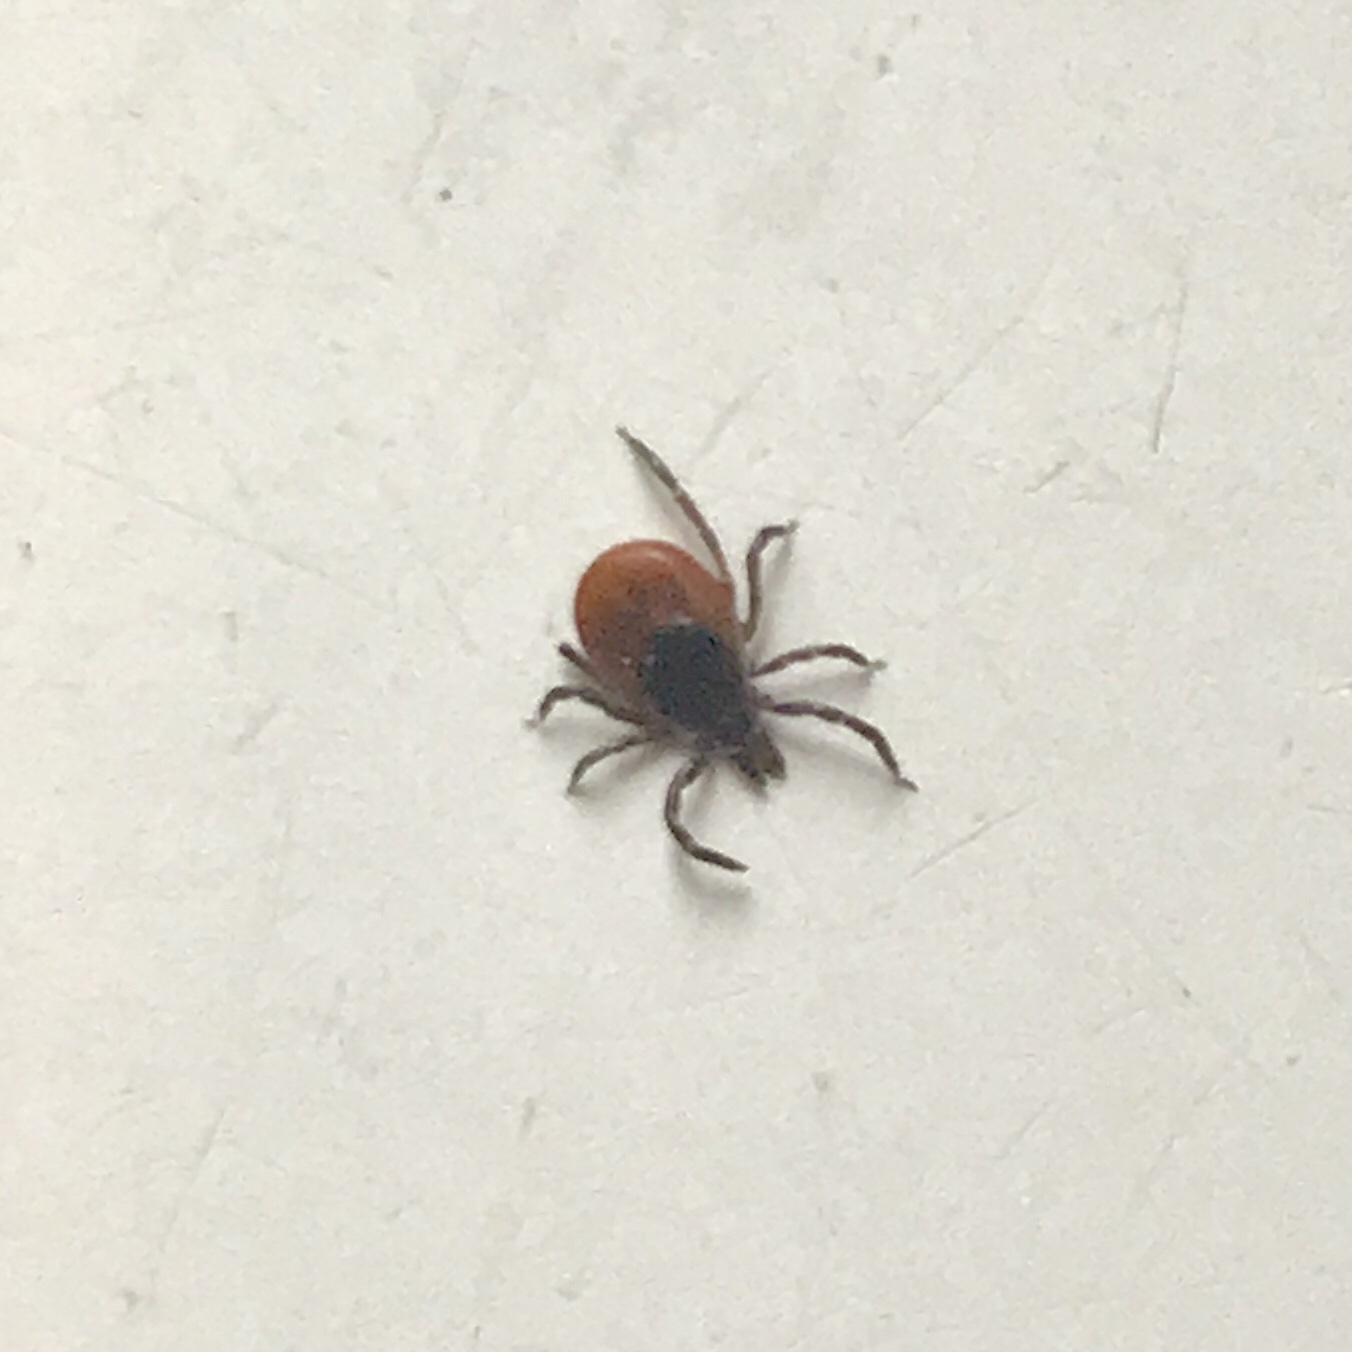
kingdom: Animalia
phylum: Arthropoda
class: Arachnida
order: Ixodida
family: Ixodidae
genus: Ixodes
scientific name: Ixodes scapularis
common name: Black legged tick
